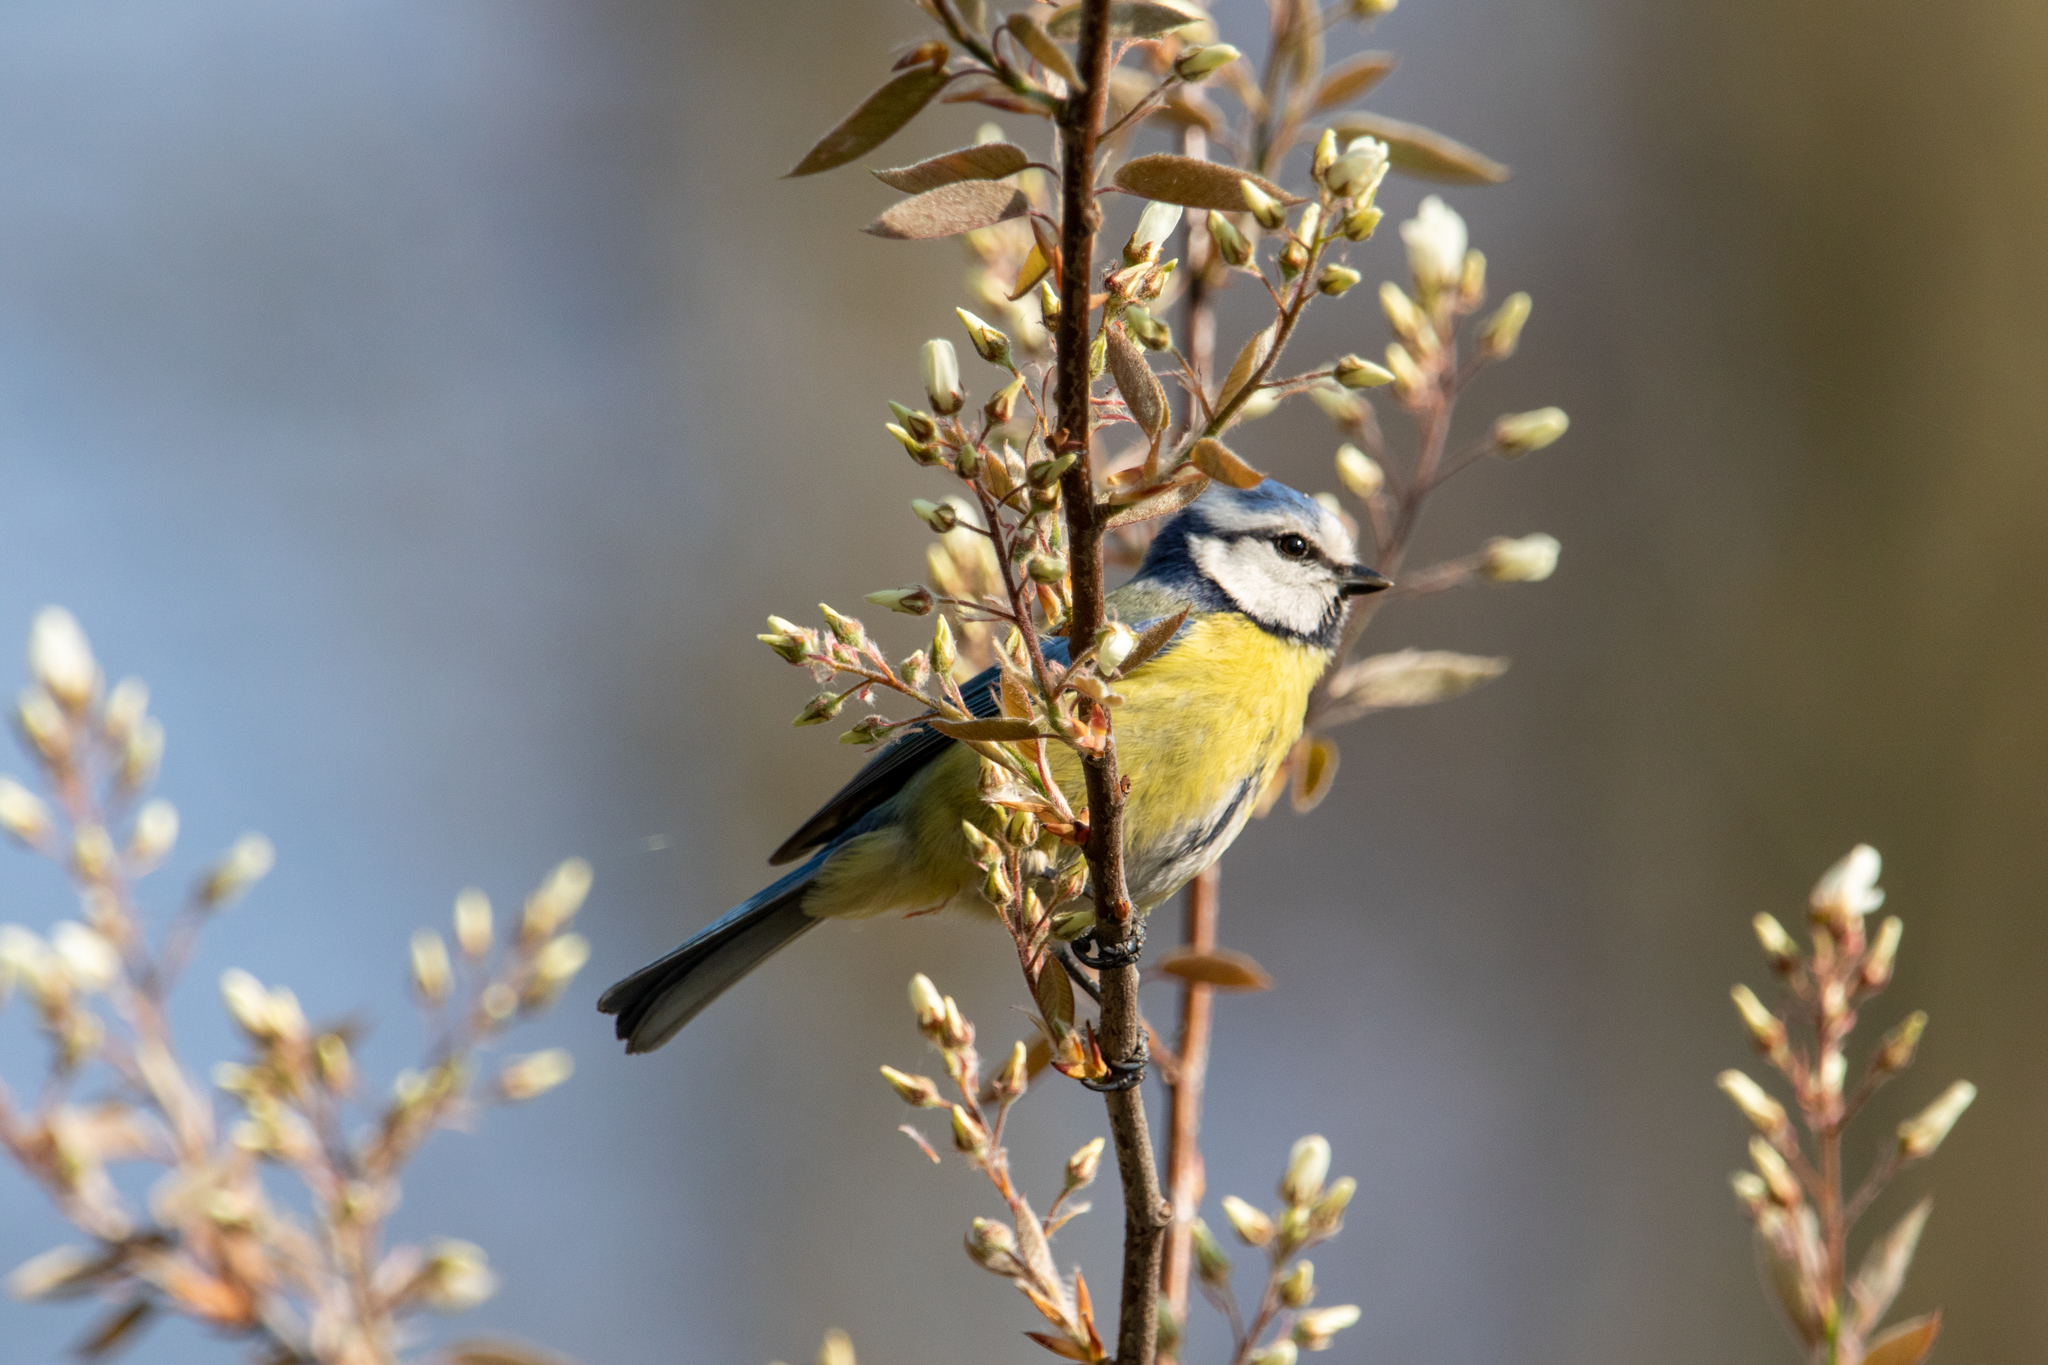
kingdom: Animalia
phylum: Chordata
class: Aves
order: Passeriformes
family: Paridae
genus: Cyanistes
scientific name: Cyanistes caeruleus
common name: Eurasian blue tit
